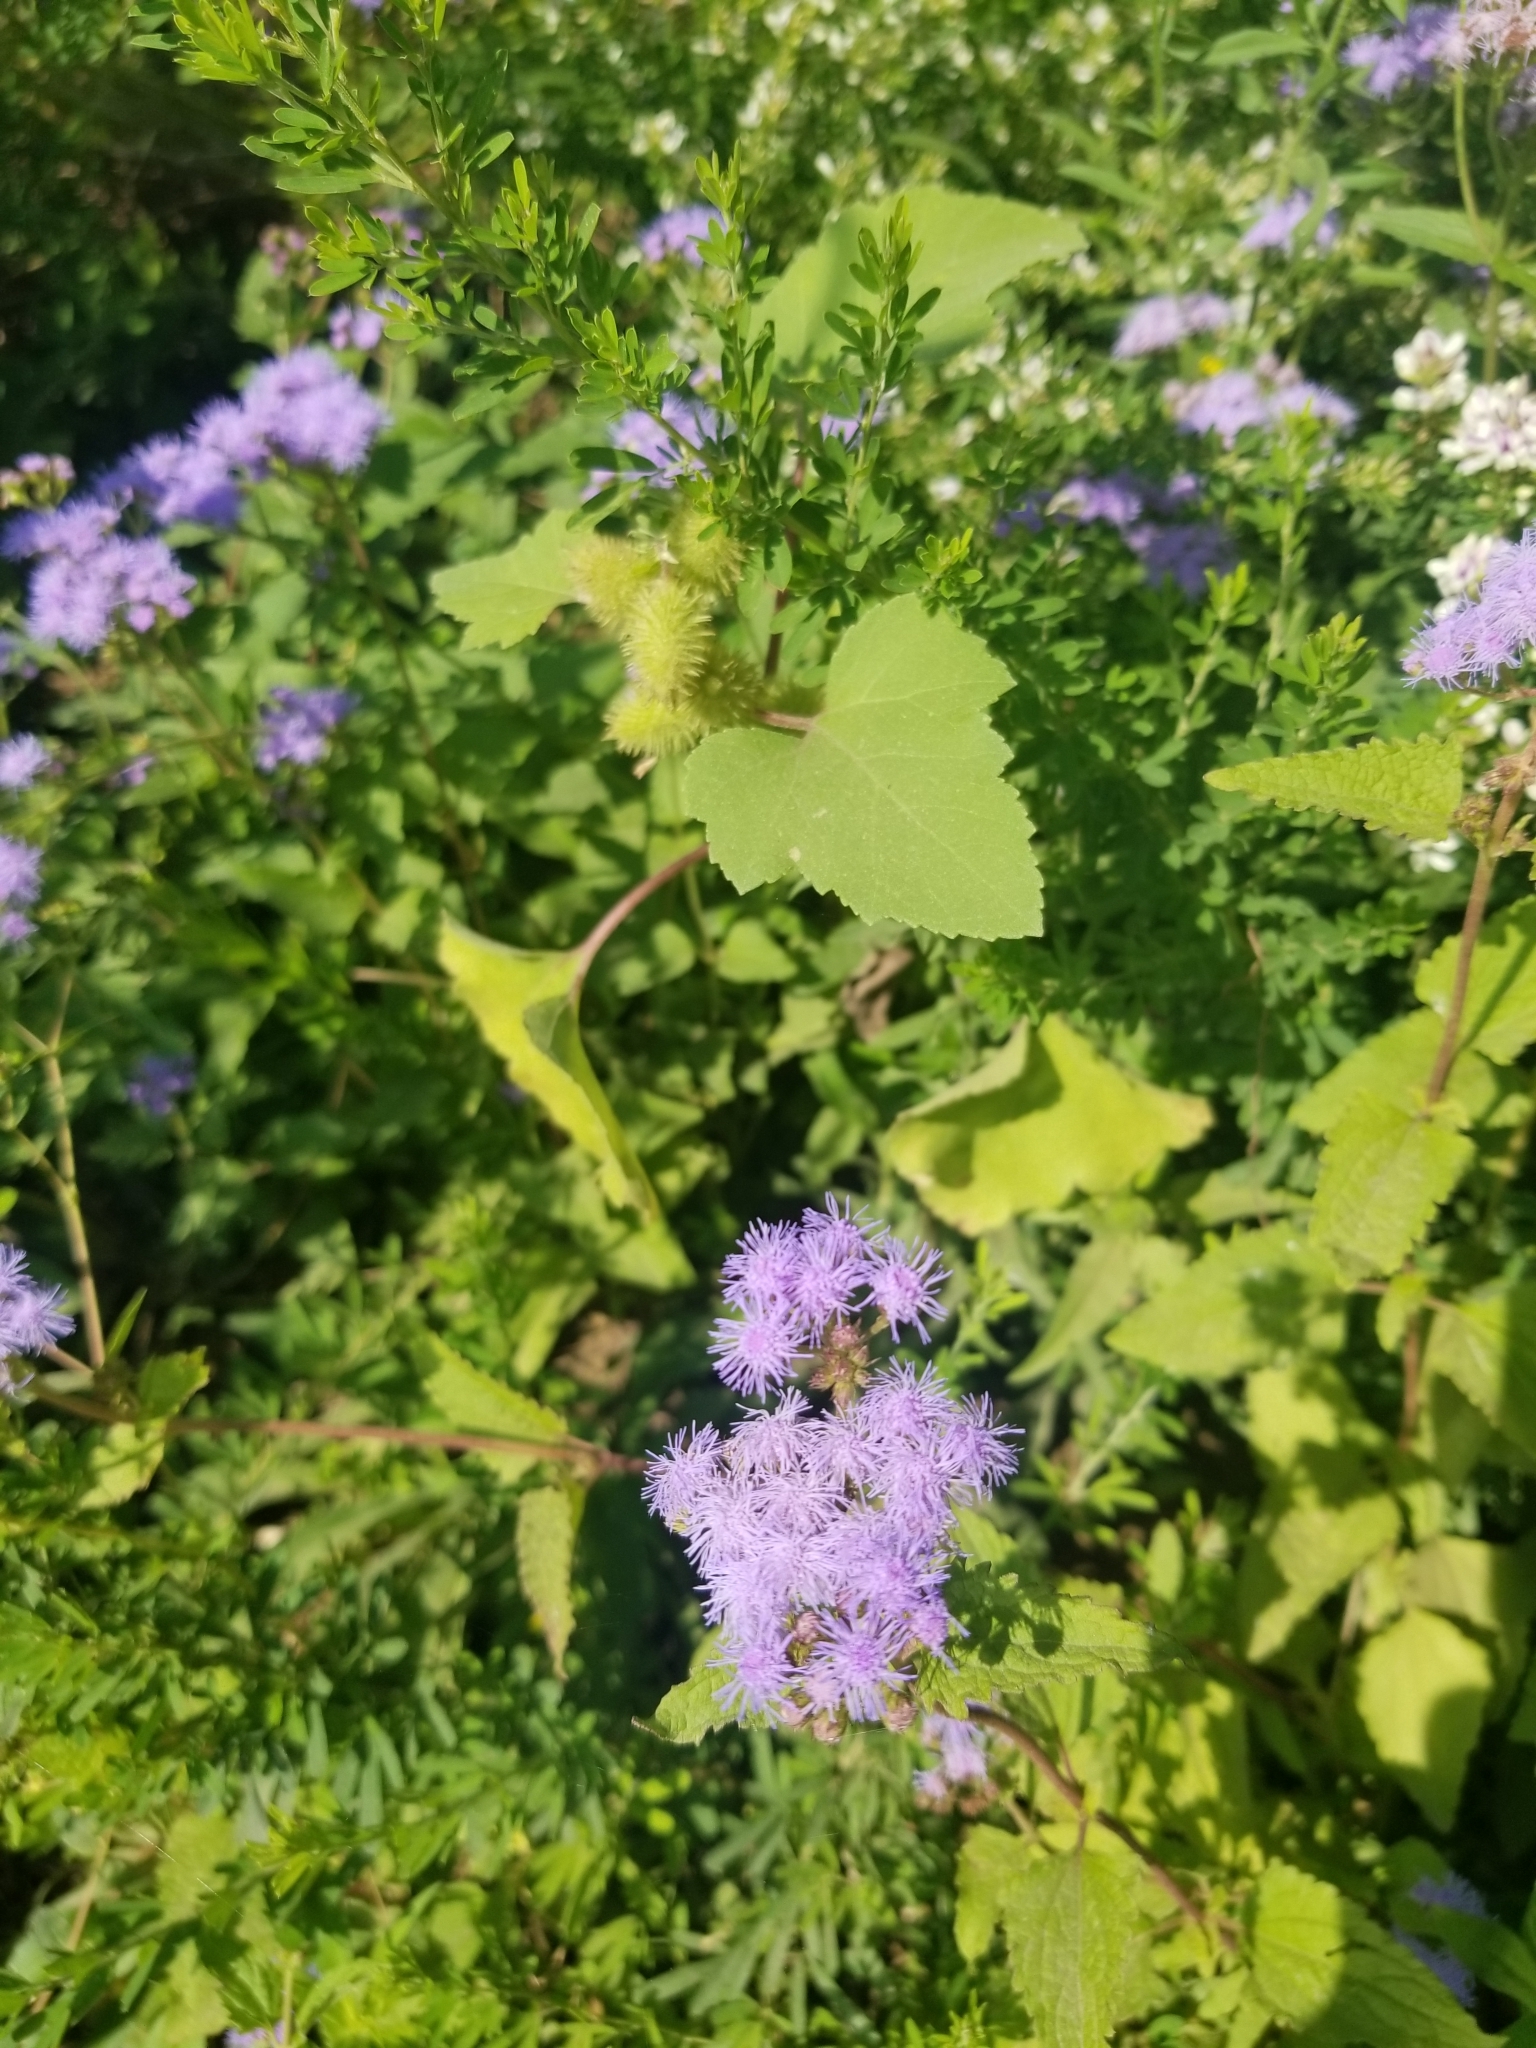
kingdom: Plantae
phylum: Tracheophyta
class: Magnoliopsida
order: Asterales
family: Asteraceae
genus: Conoclinium
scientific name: Conoclinium coelestinum
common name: Blue mistflower
